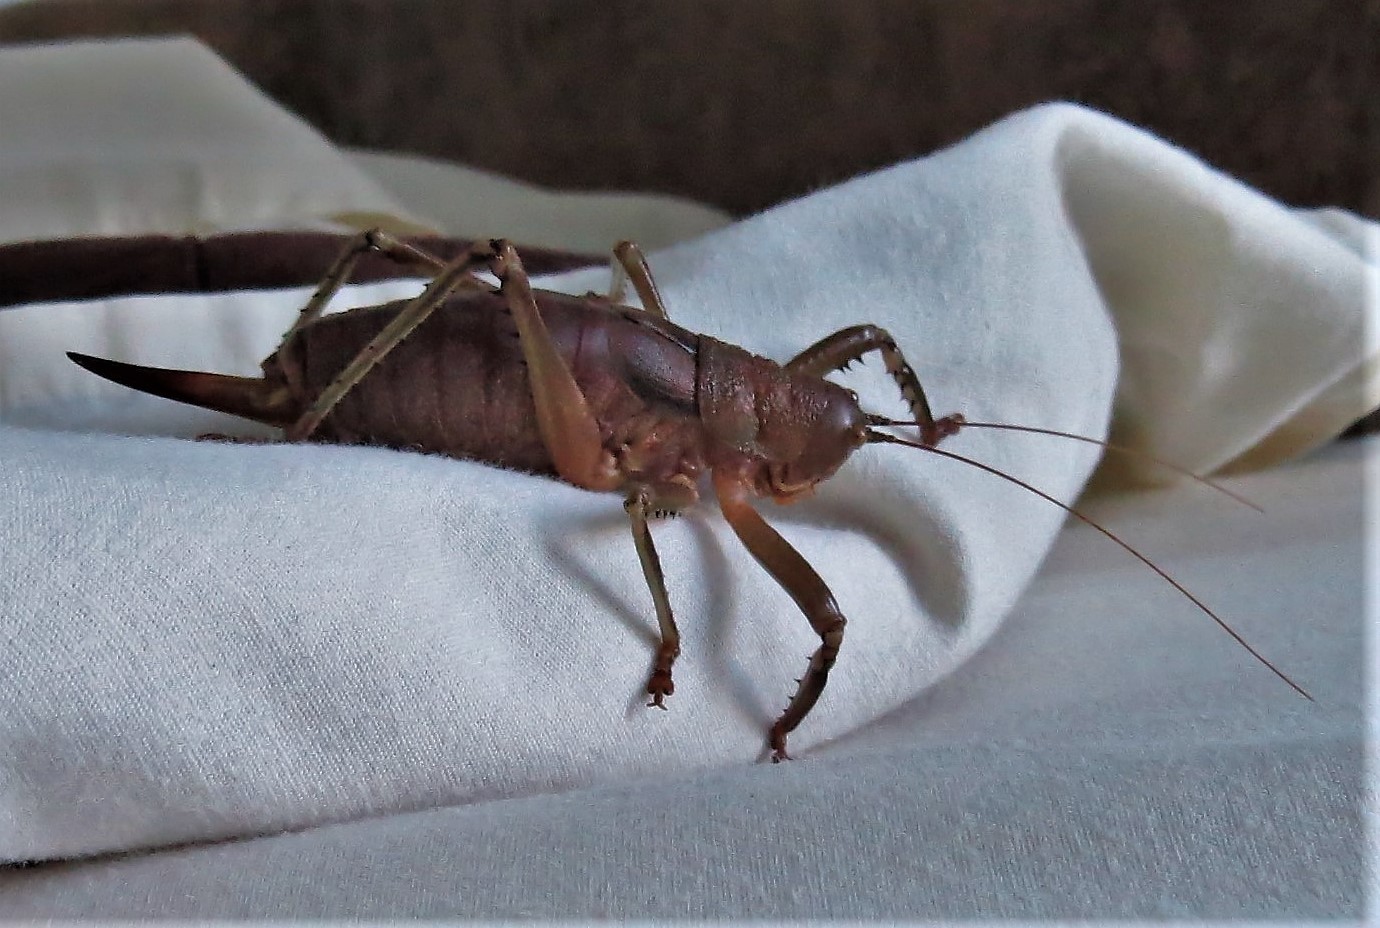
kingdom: Animalia
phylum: Arthropoda
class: Insecta
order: Orthoptera
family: Tettigoniidae
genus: Nesoecia
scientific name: Nesoecia nigrispina
